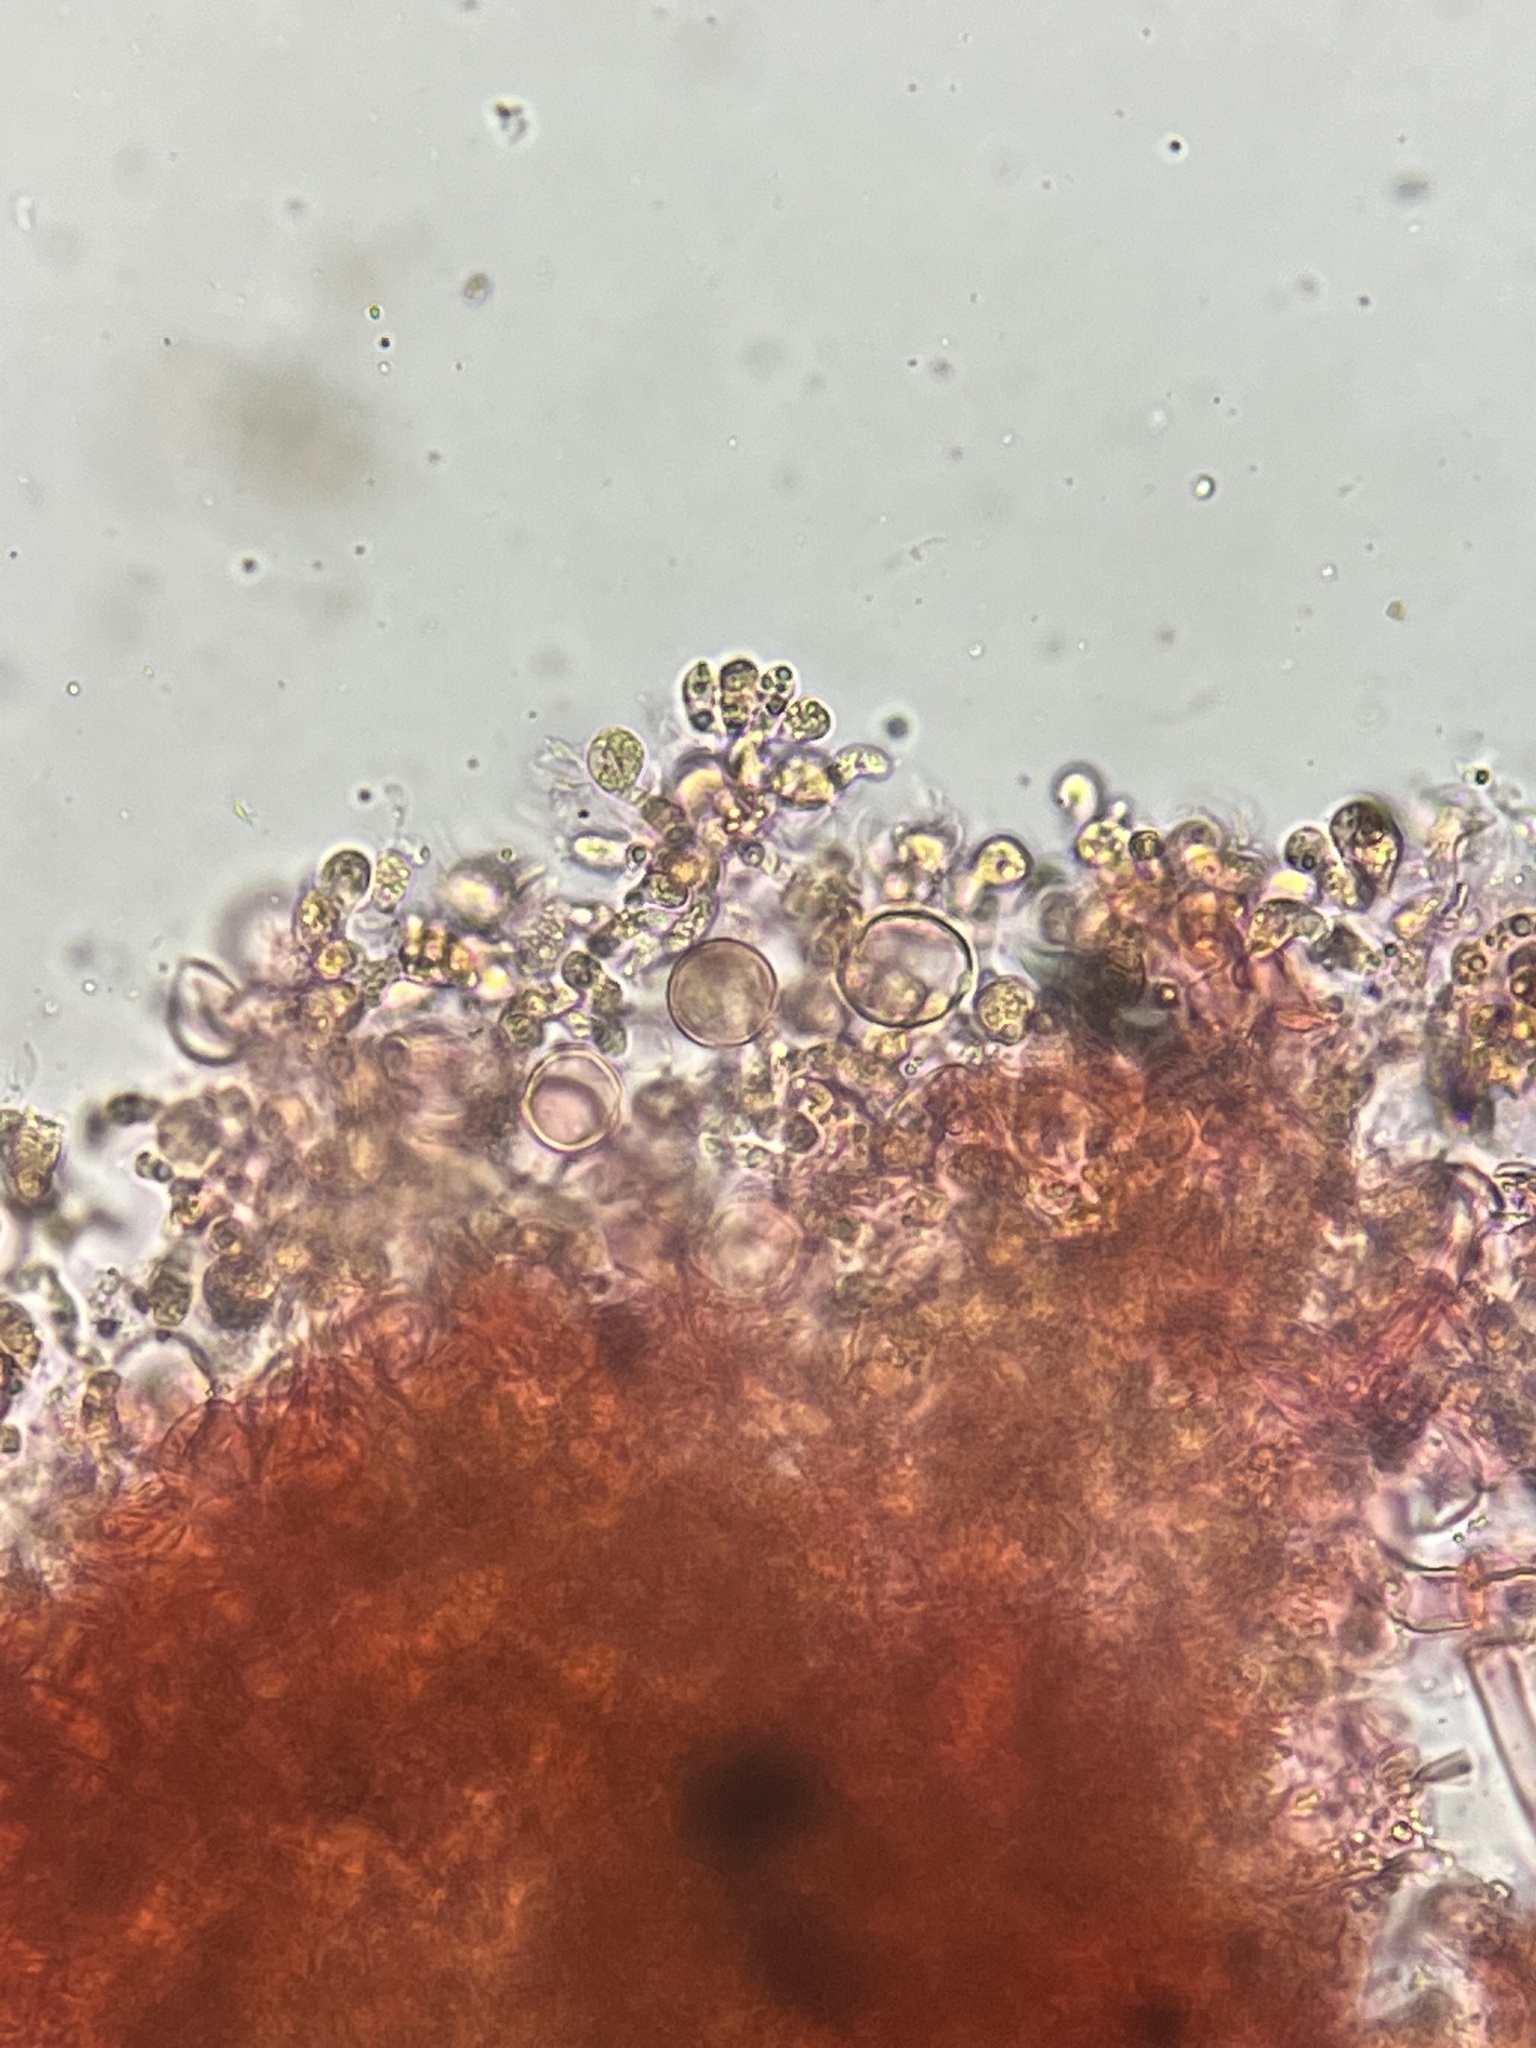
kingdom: Fungi
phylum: Basidiomycota
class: Agaricomycetes
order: Cantharellales
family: Tulasnellaceae
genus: Tulasnella
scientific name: Tulasnella violea
